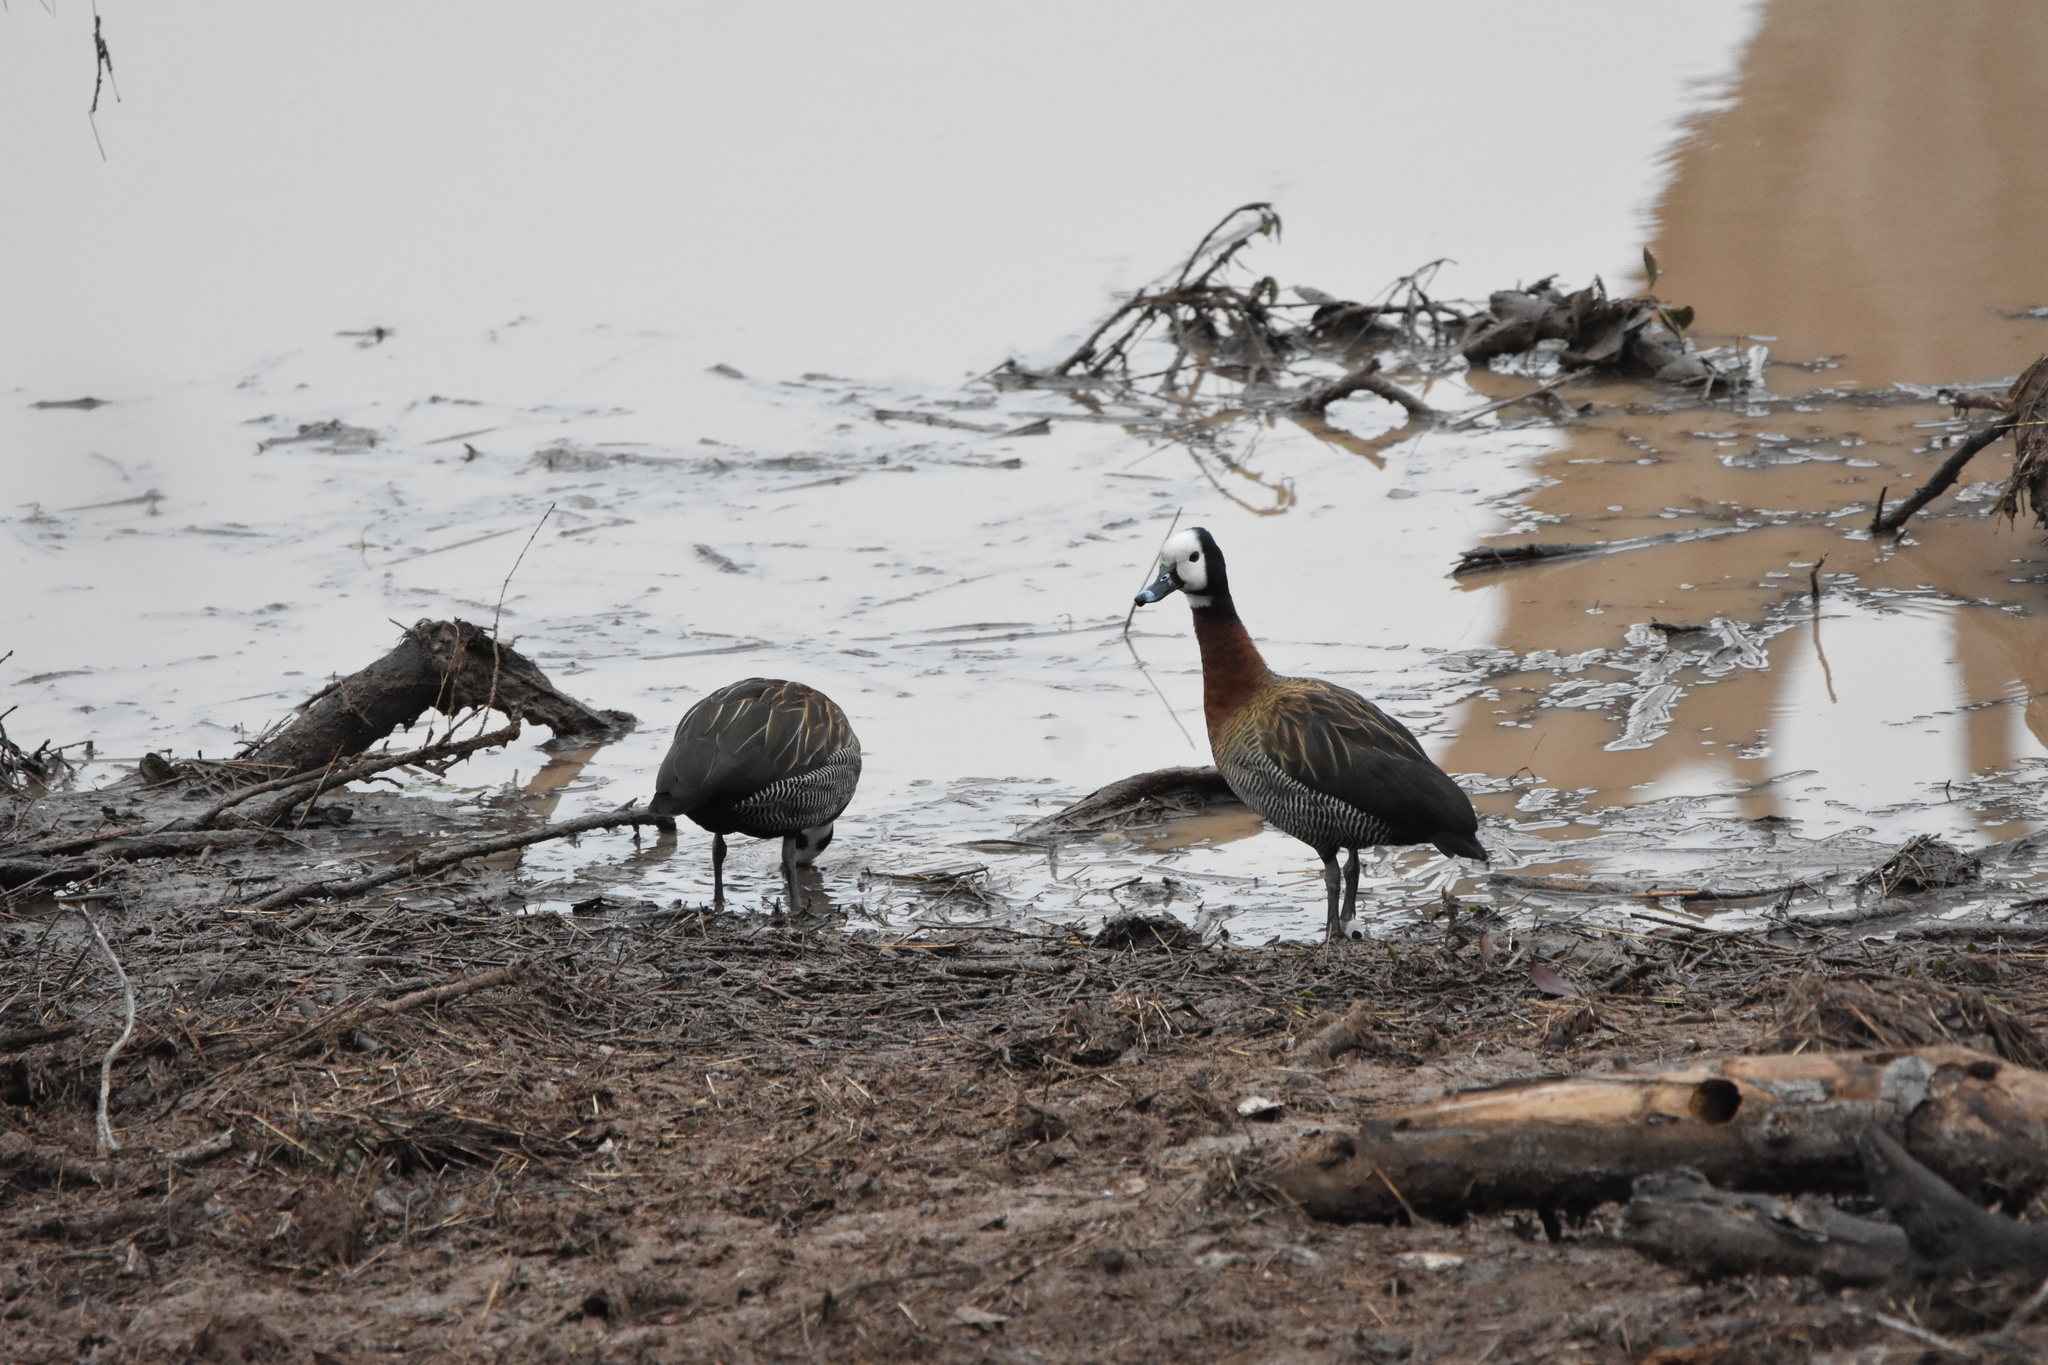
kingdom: Animalia
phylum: Chordata
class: Aves
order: Anseriformes
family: Anatidae
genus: Dendrocygna
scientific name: Dendrocygna viduata
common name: White-faced whistling duck
